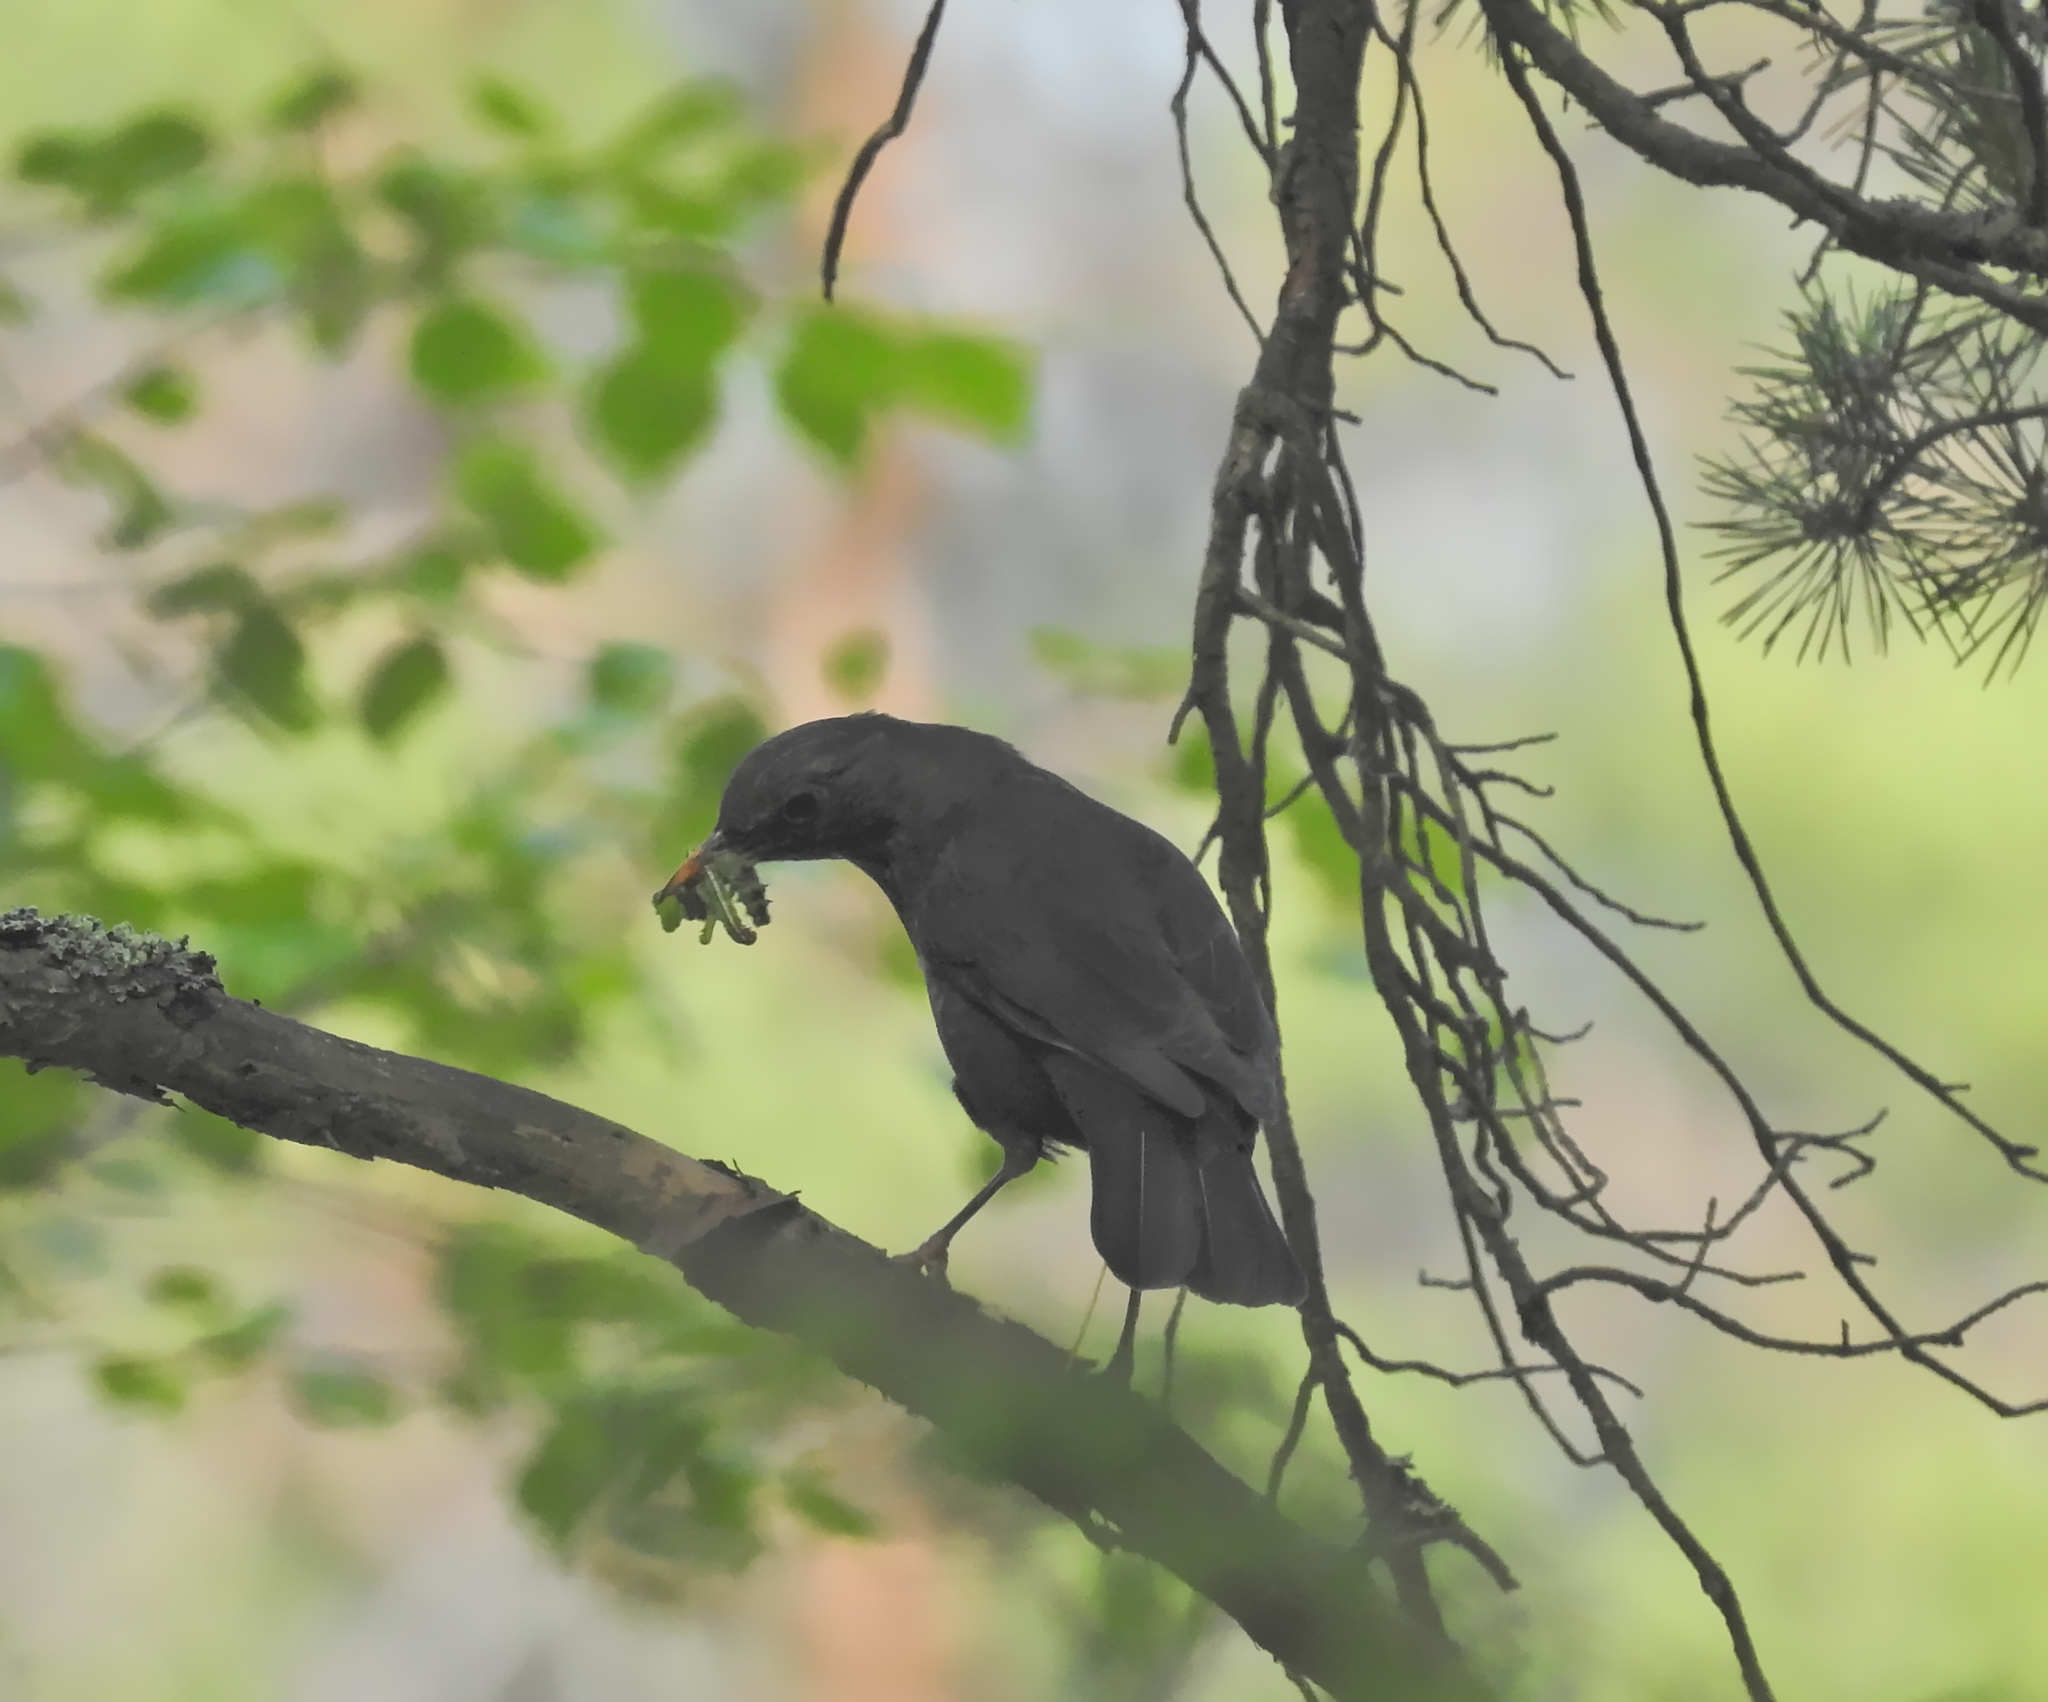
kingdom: Animalia
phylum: Chordata
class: Aves
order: Passeriformes
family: Turdidae
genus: Turdus
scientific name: Turdus merula
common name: Common blackbird
